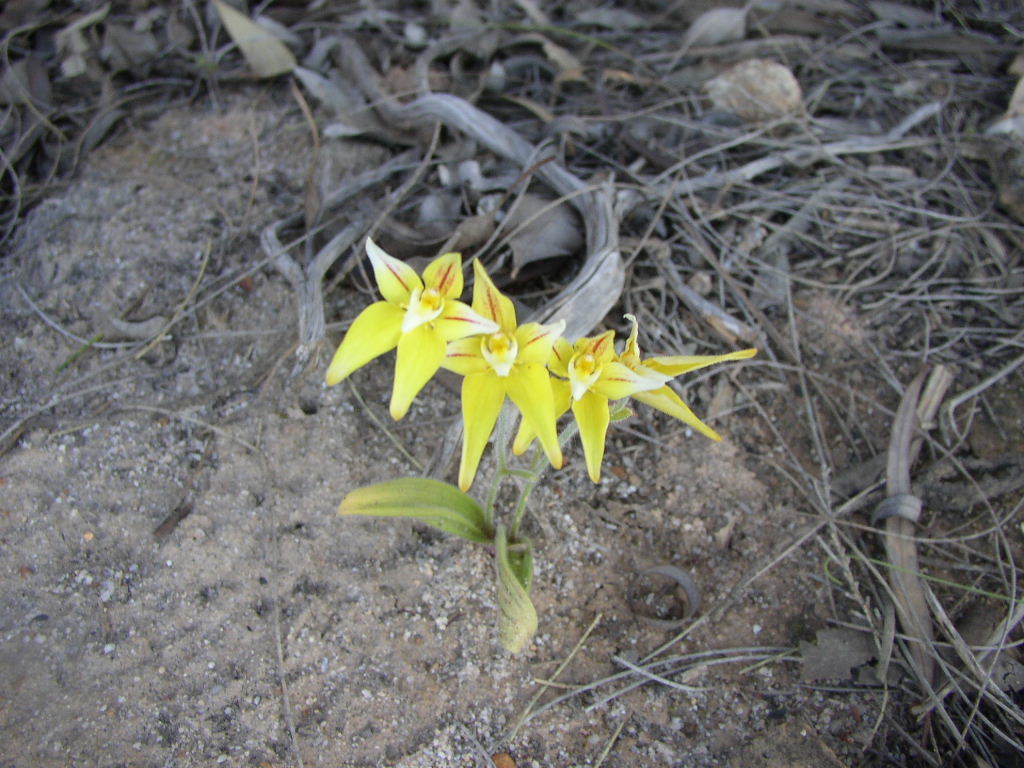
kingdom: Plantae
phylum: Tracheophyta
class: Liliopsida
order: Asparagales
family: Orchidaceae
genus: Caladenia
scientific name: Caladenia flava
